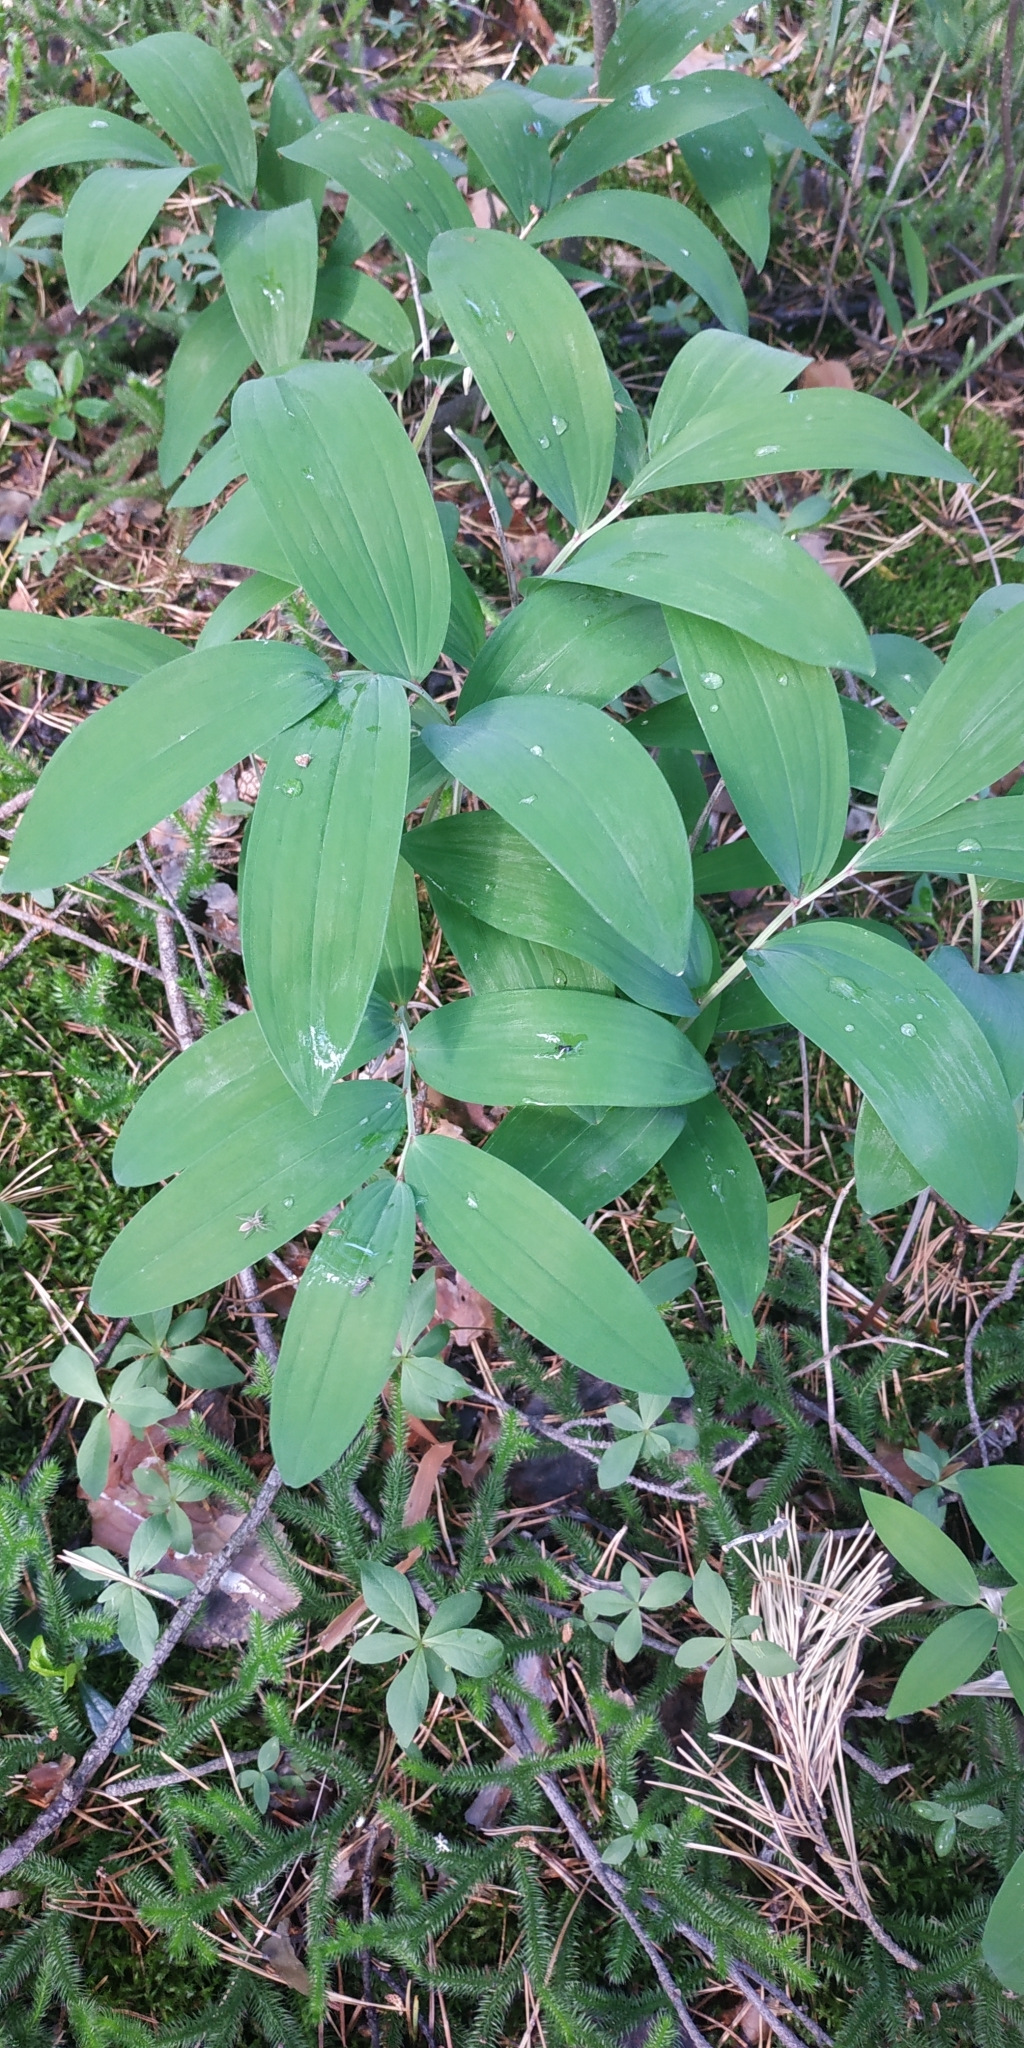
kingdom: Plantae
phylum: Tracheophyta
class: Liliopsida
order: Asparagales
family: Asparagaceae
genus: Polygonatum
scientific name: Polygonatum odoratum
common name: Angular solomon's-seal
